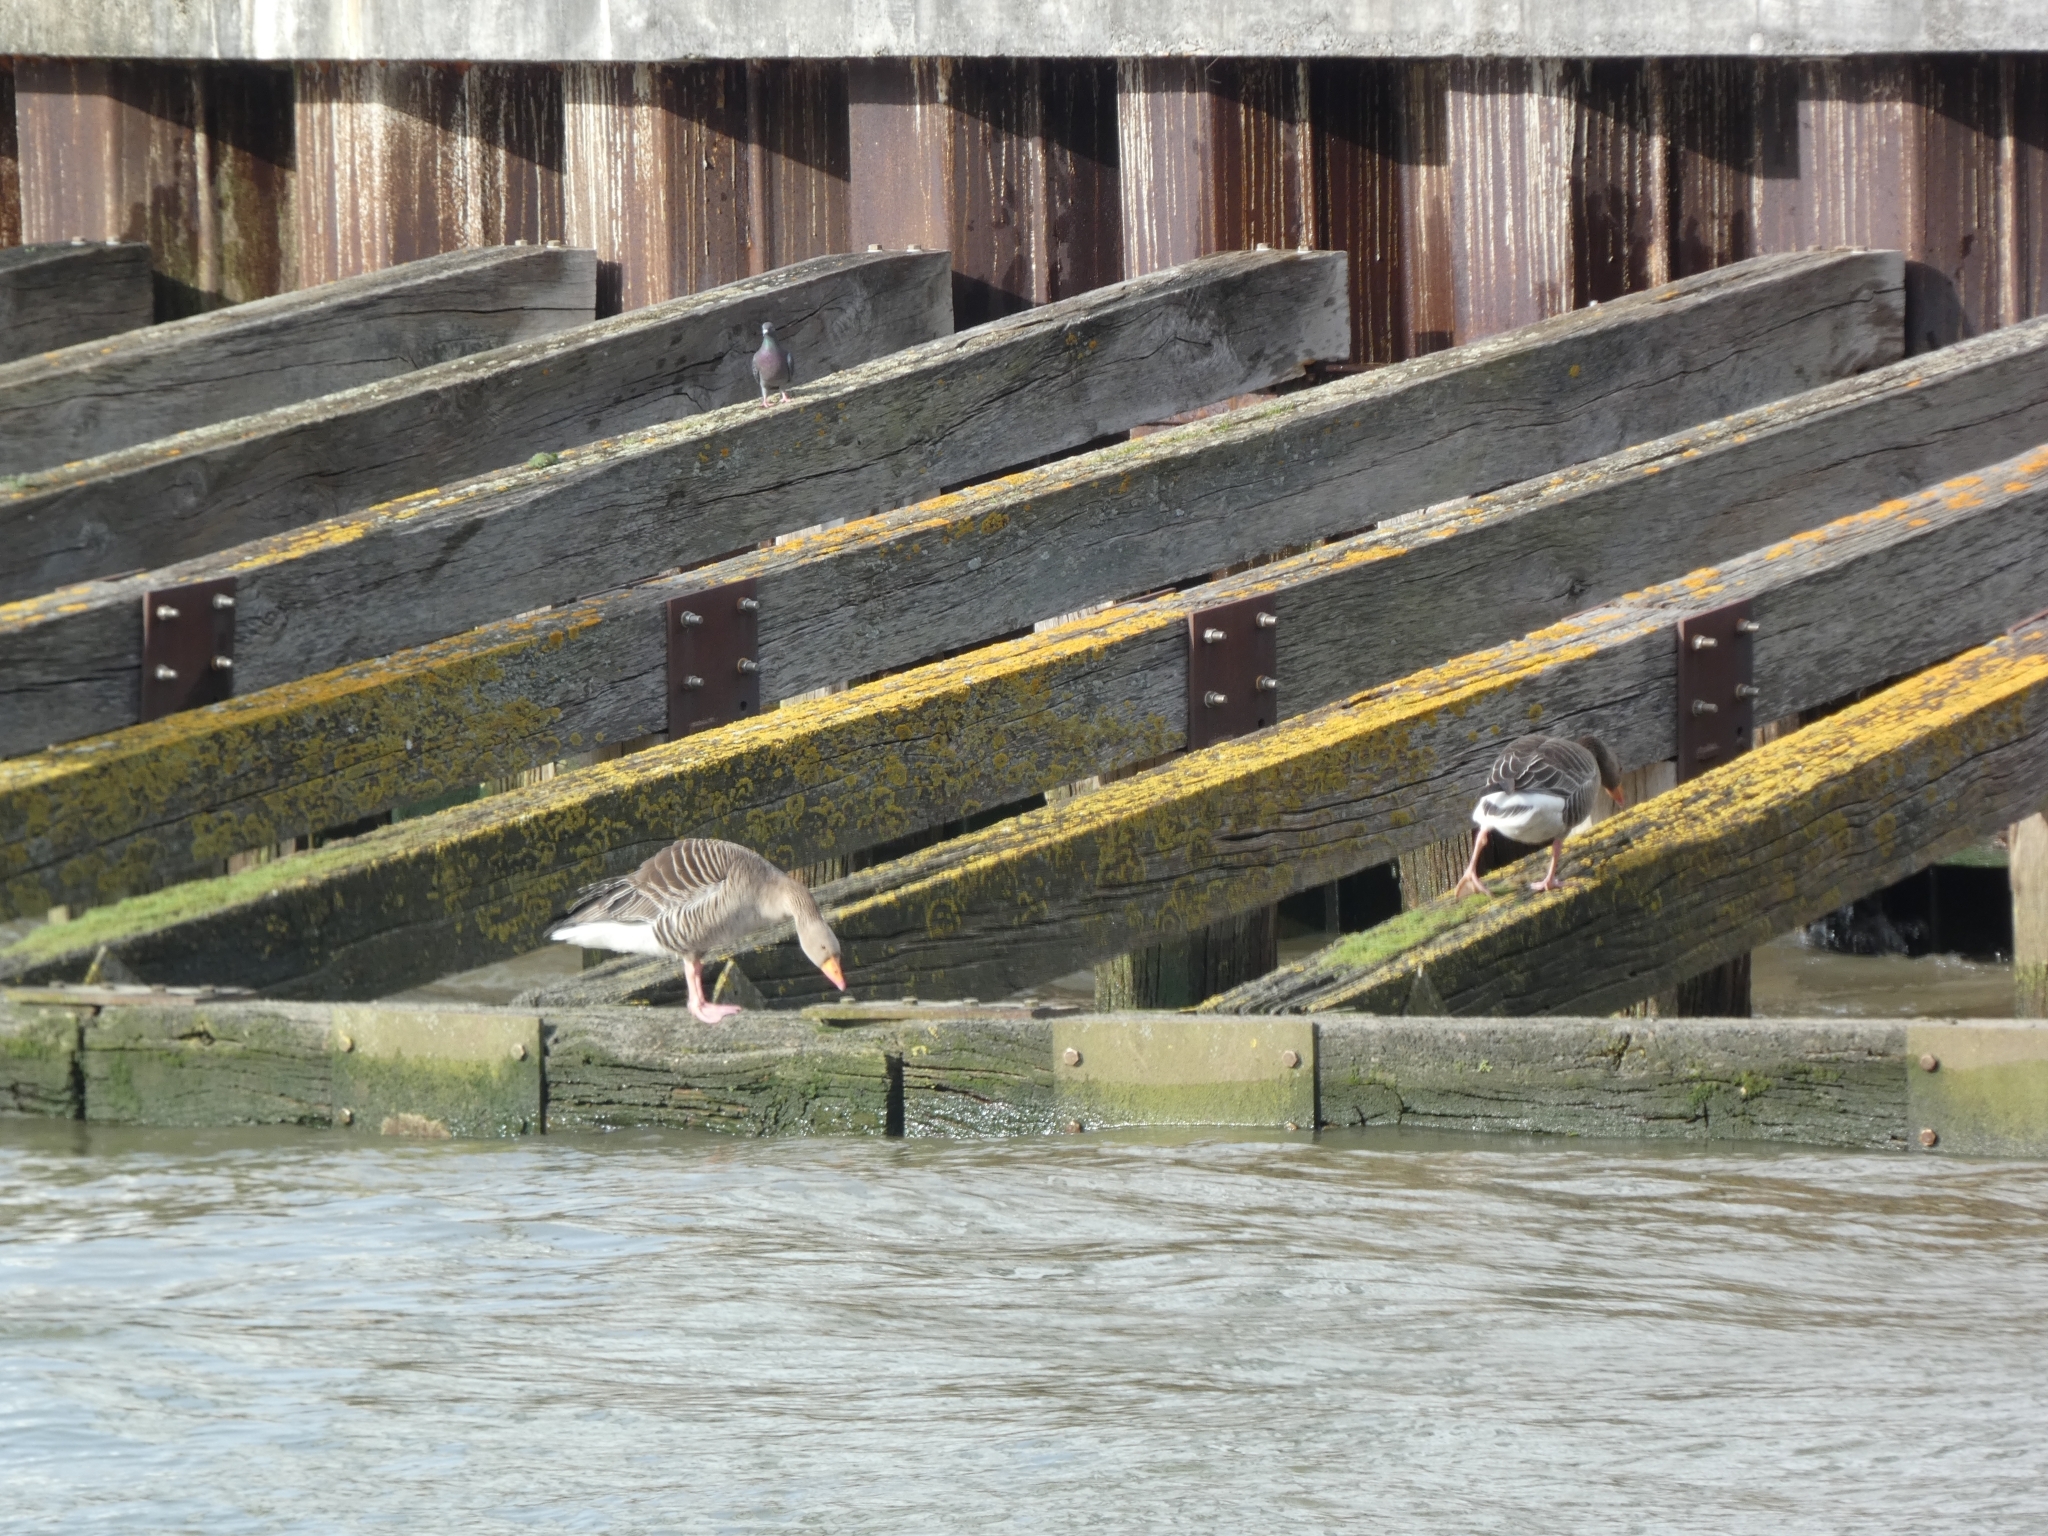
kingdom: Animalia
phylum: Chordata
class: Aves
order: Anseriformes
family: Anatidae
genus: Anser
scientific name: Anser anser
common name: Greylag goose
